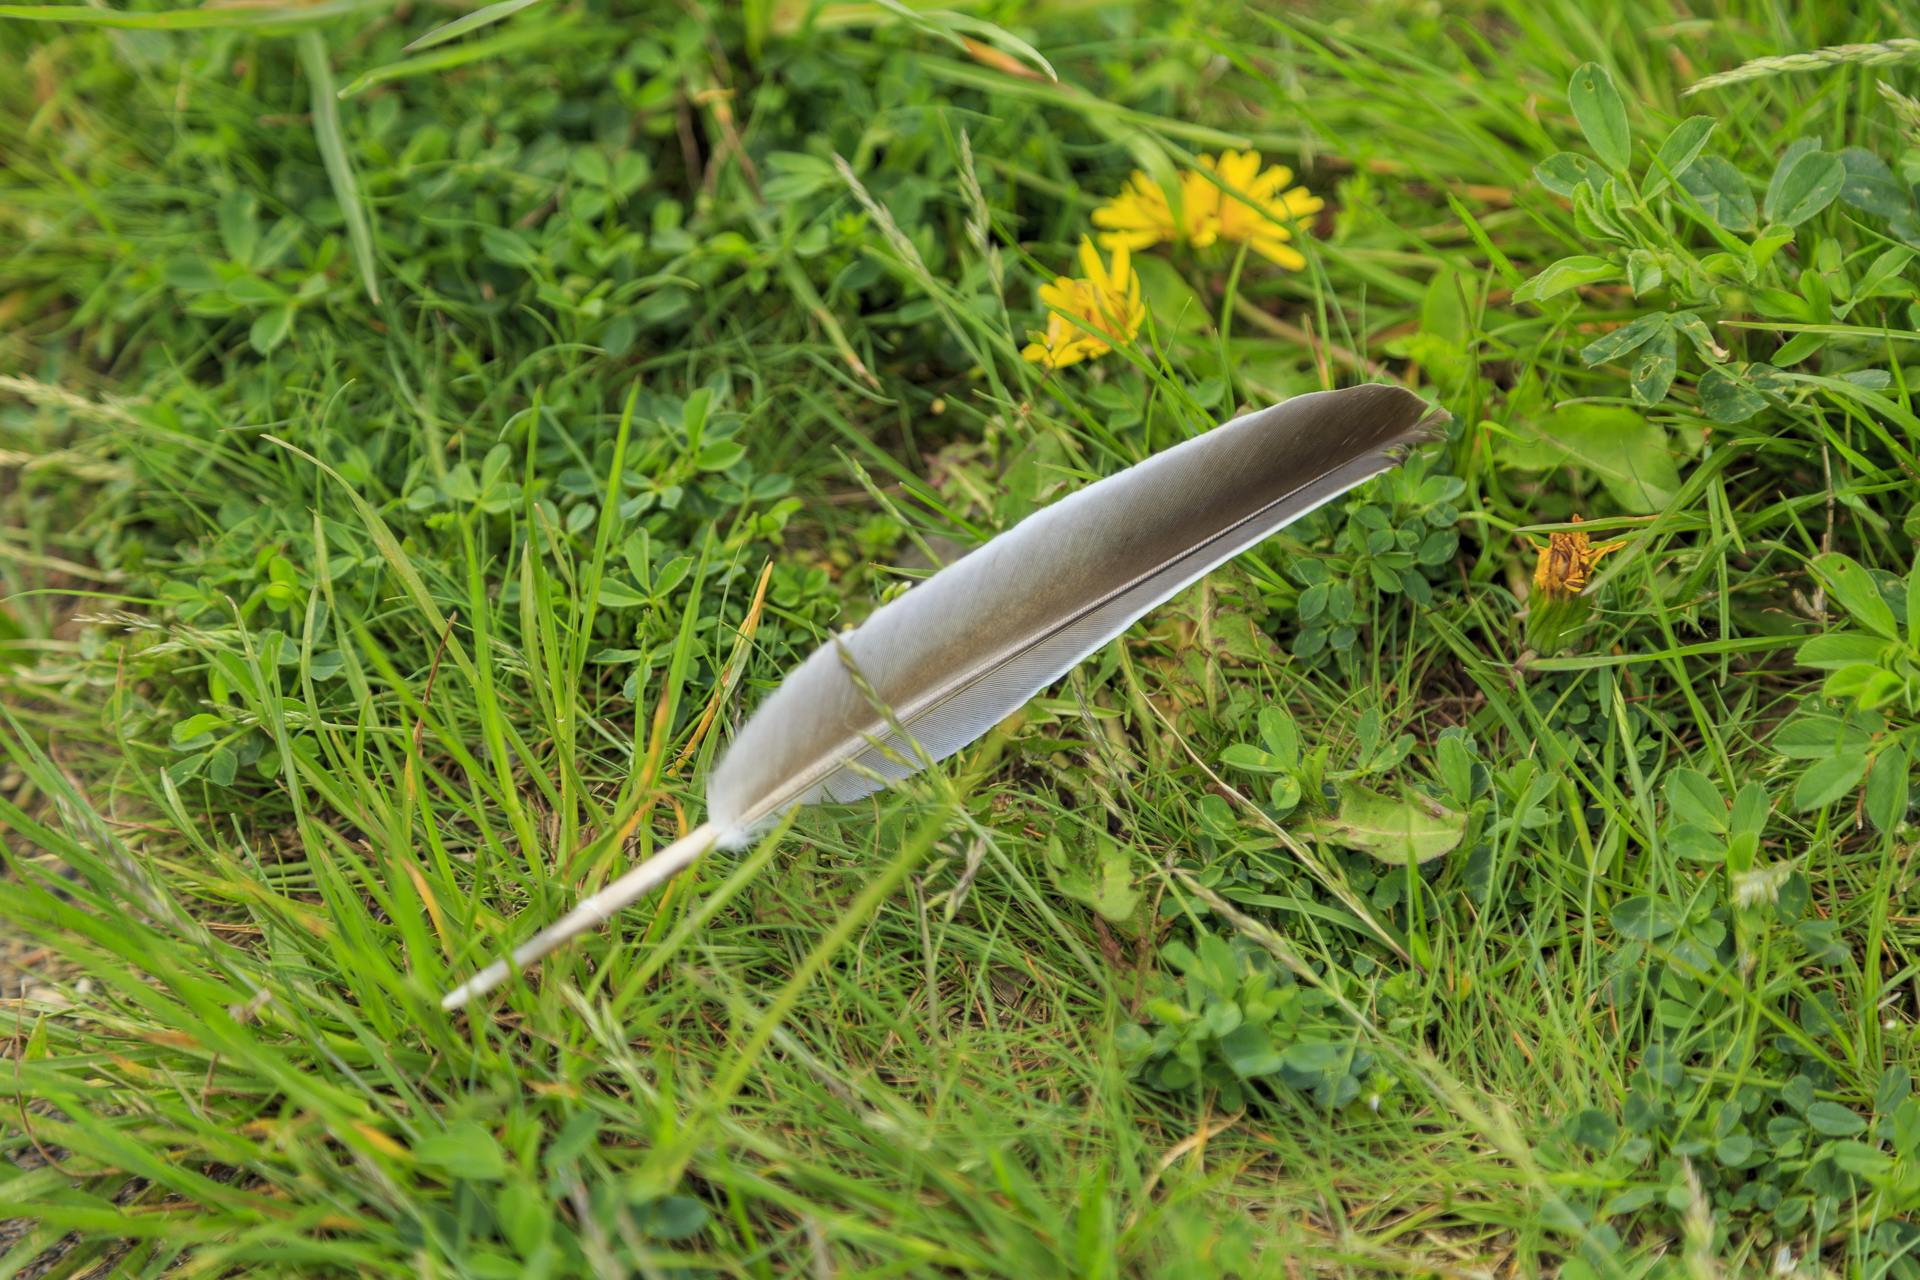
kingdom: Animalia
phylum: Chordata
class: Aves
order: Columbiformes
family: Columbidae
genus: Columba
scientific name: Columba palumbus
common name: Common wood pigeon
